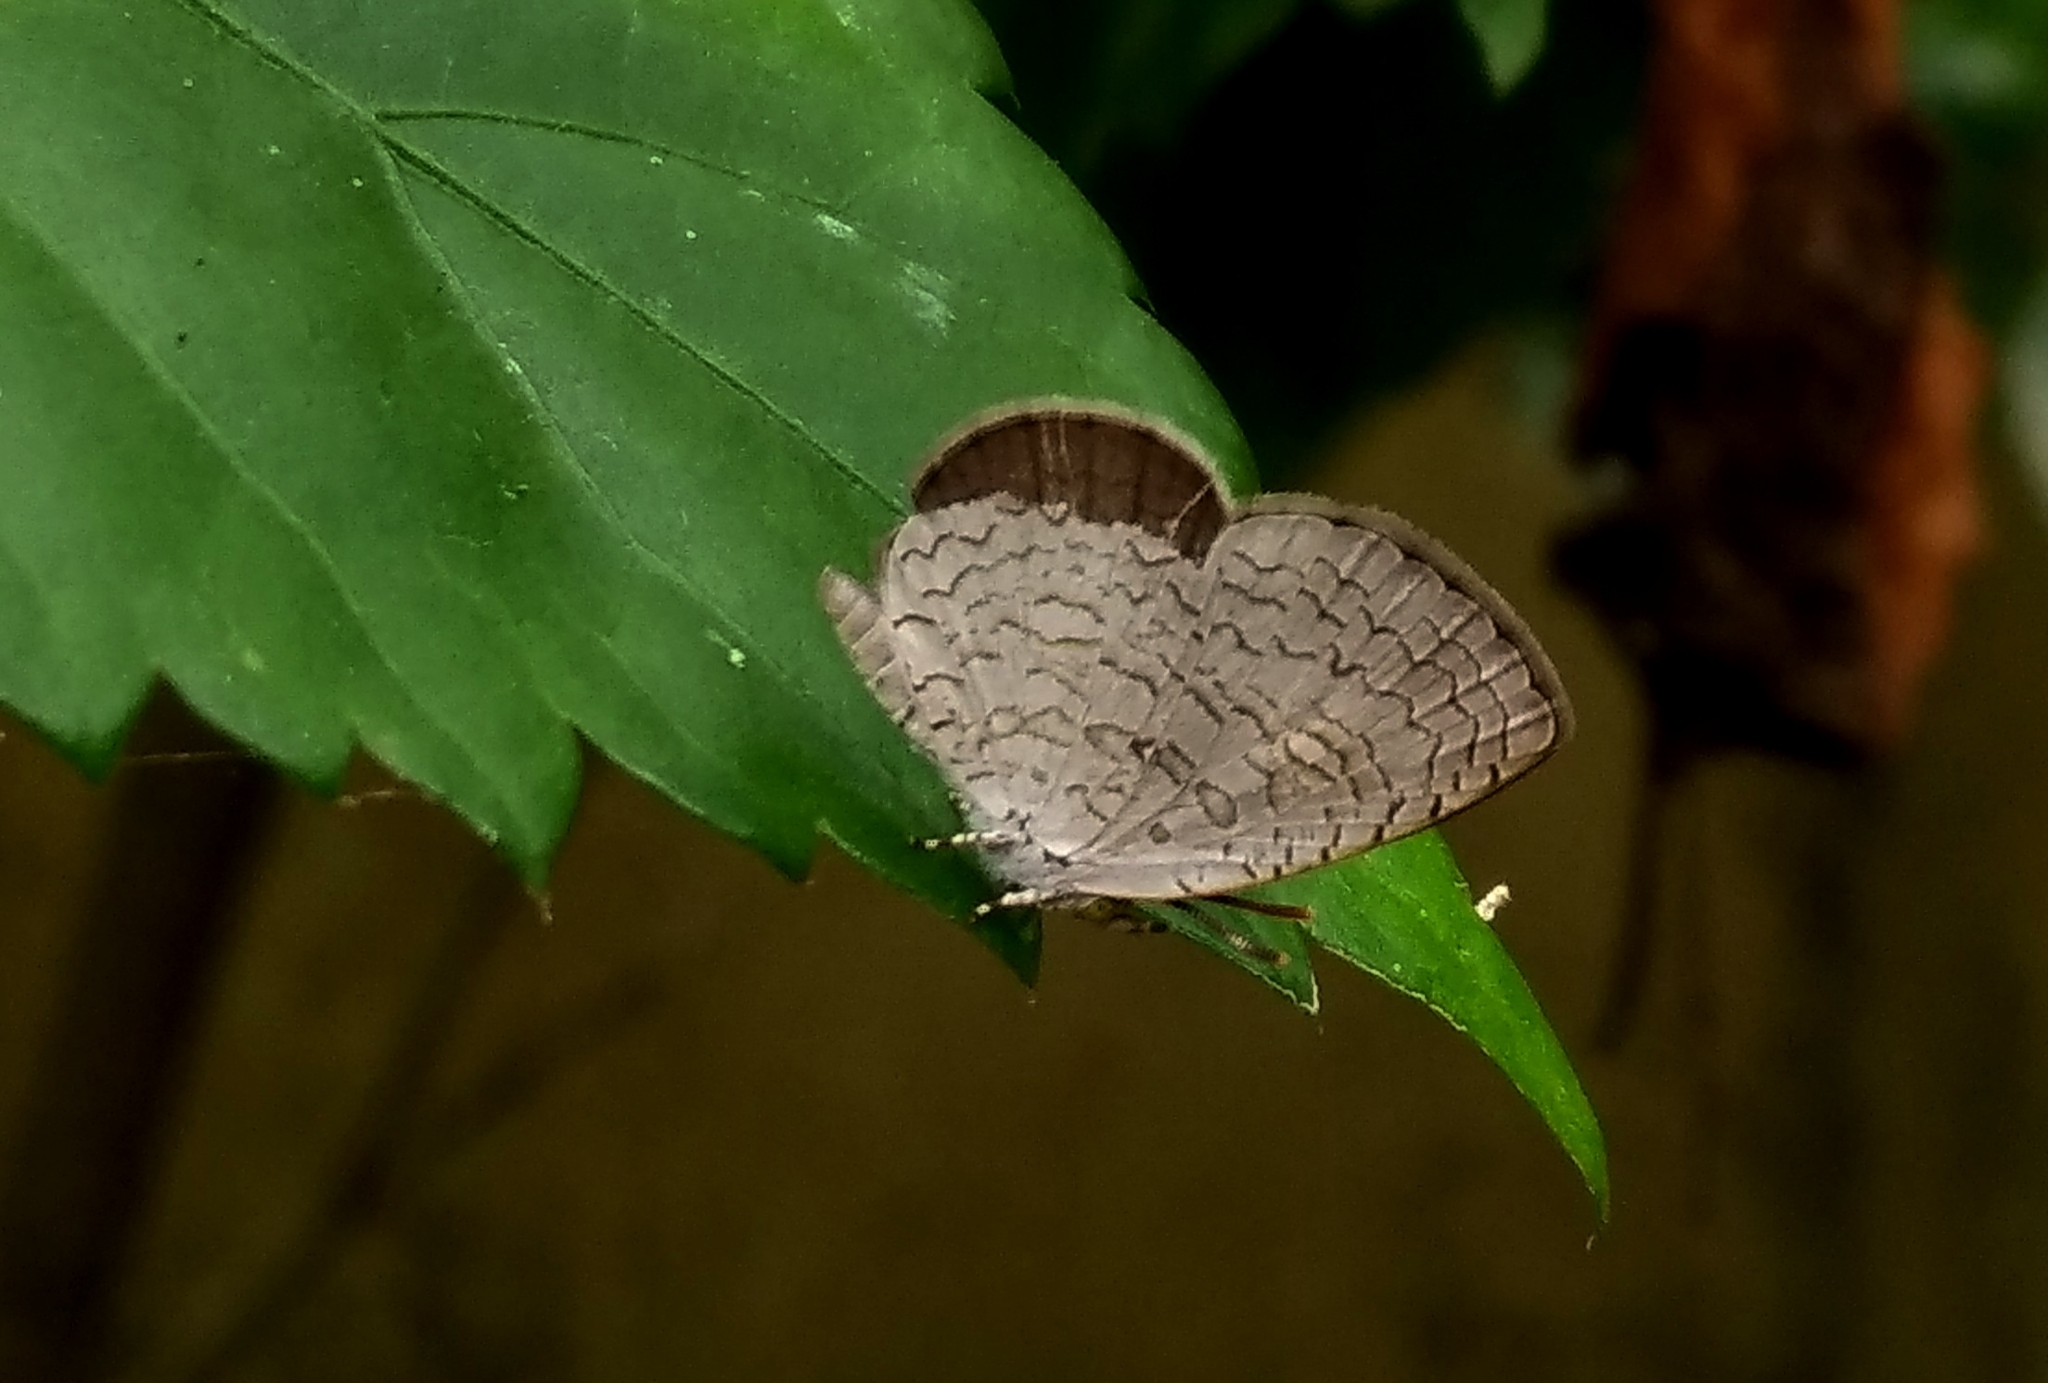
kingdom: Animalia
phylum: Arthropoda
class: Insecta
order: Lepidoptera
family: Lycaenidae
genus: Spalgis
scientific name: Spalgis epius
